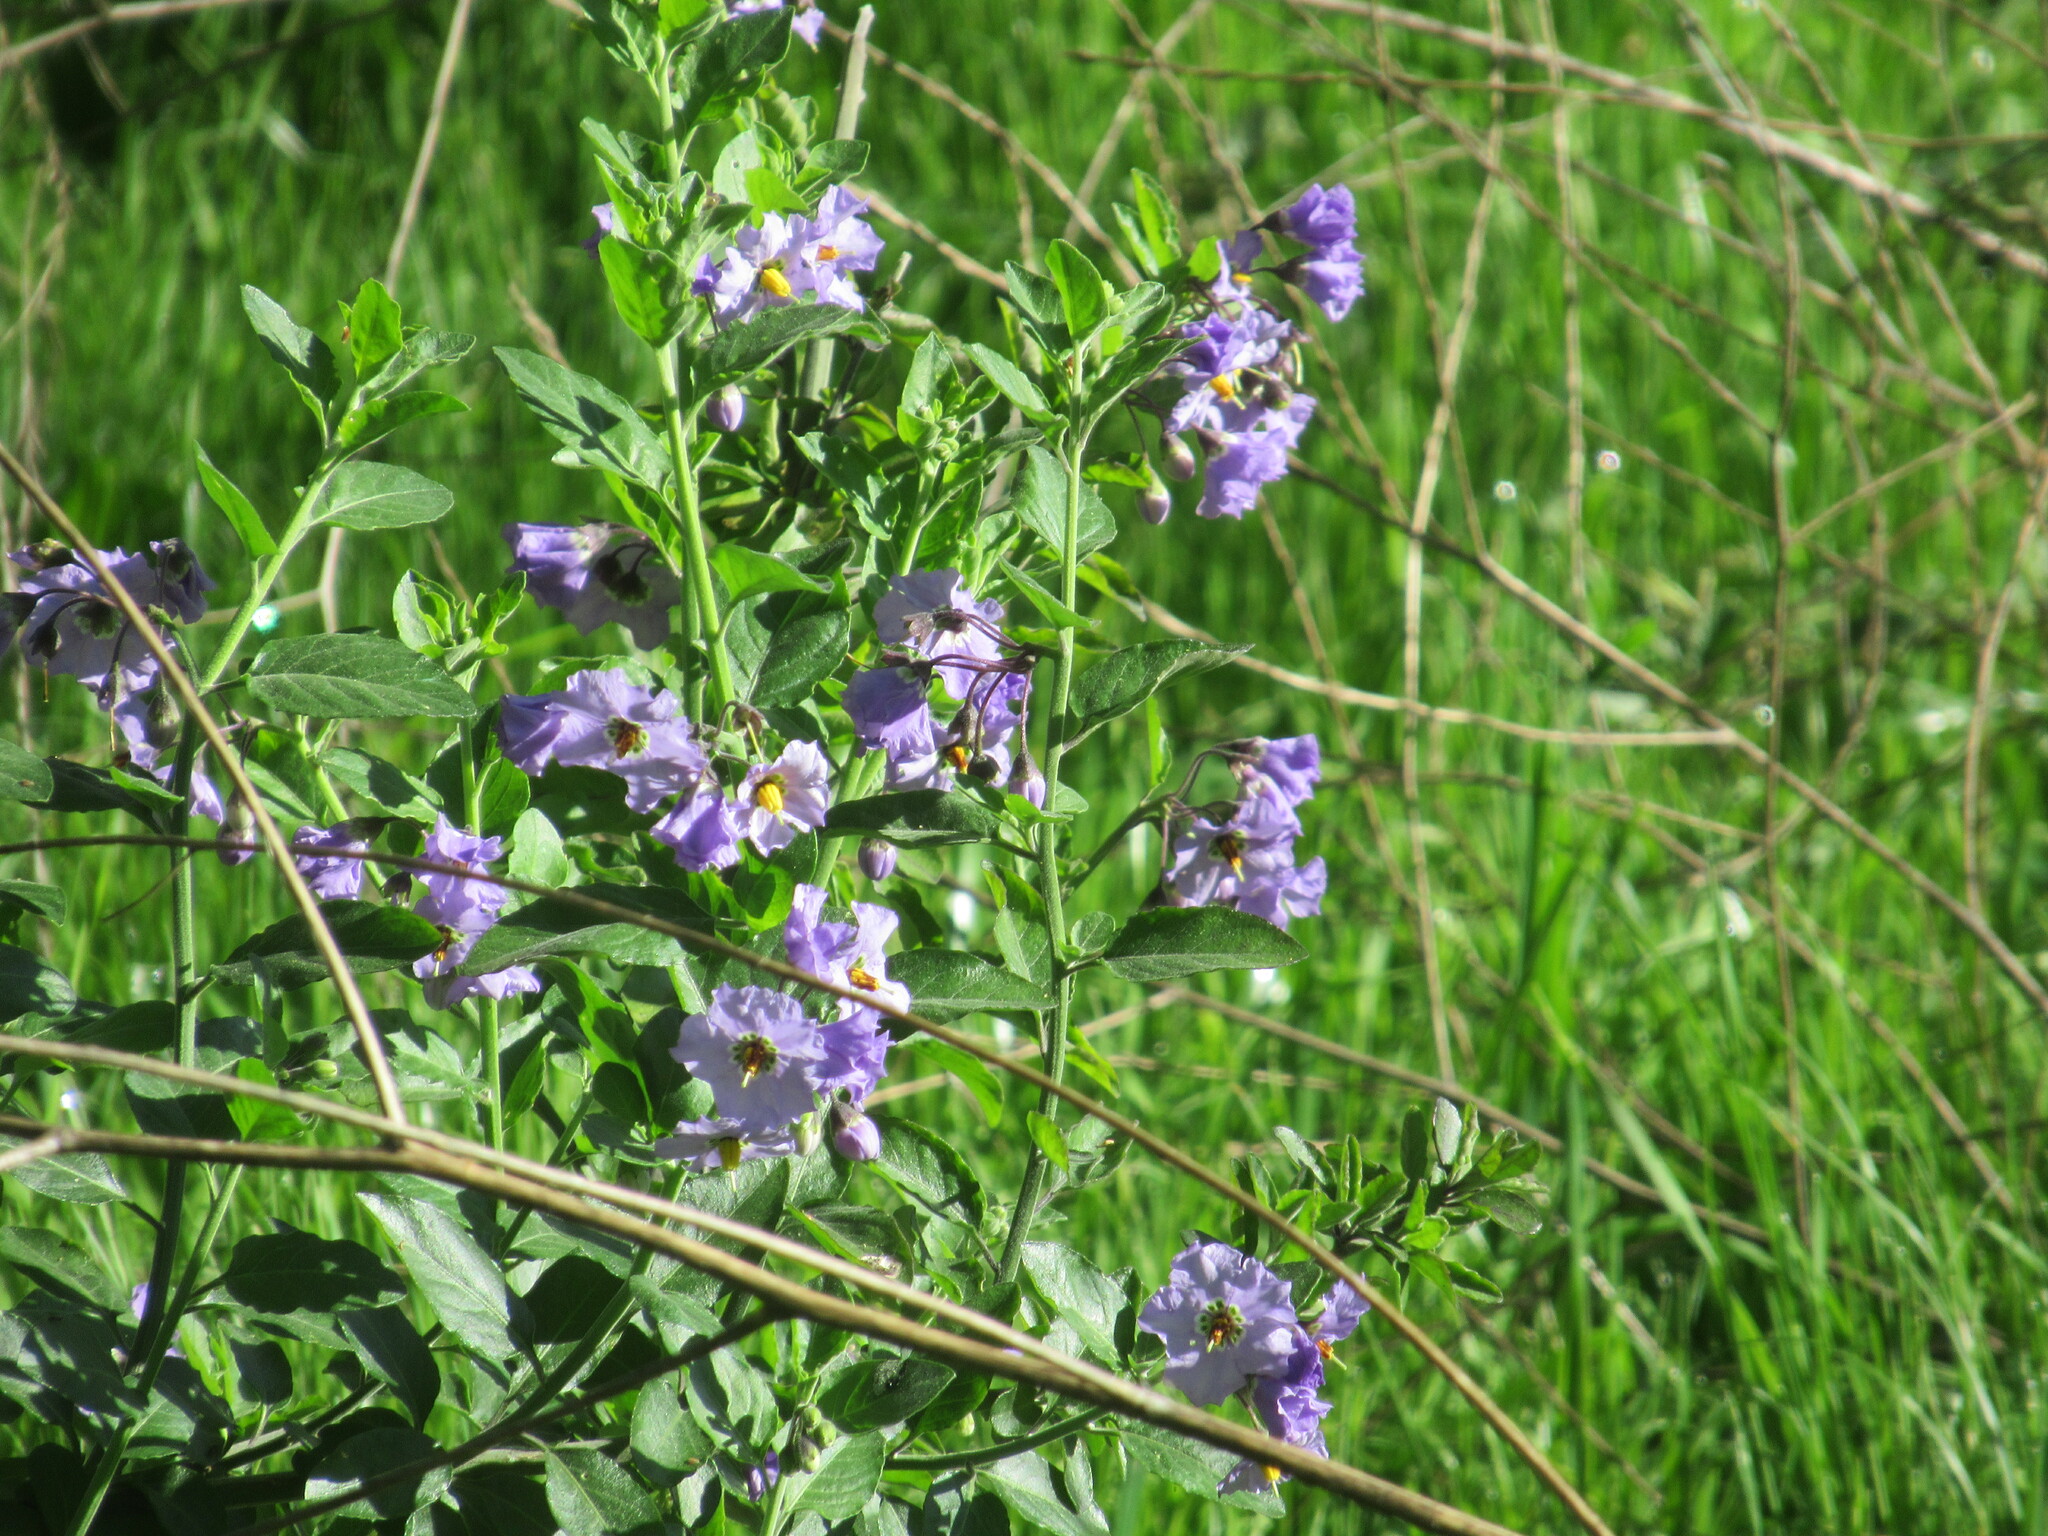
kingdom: Plantae
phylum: Tracheophyta
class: Magnoliopsida
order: Solanales
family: Solanaceae
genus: Solanum
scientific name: Solanum umbelliferum
